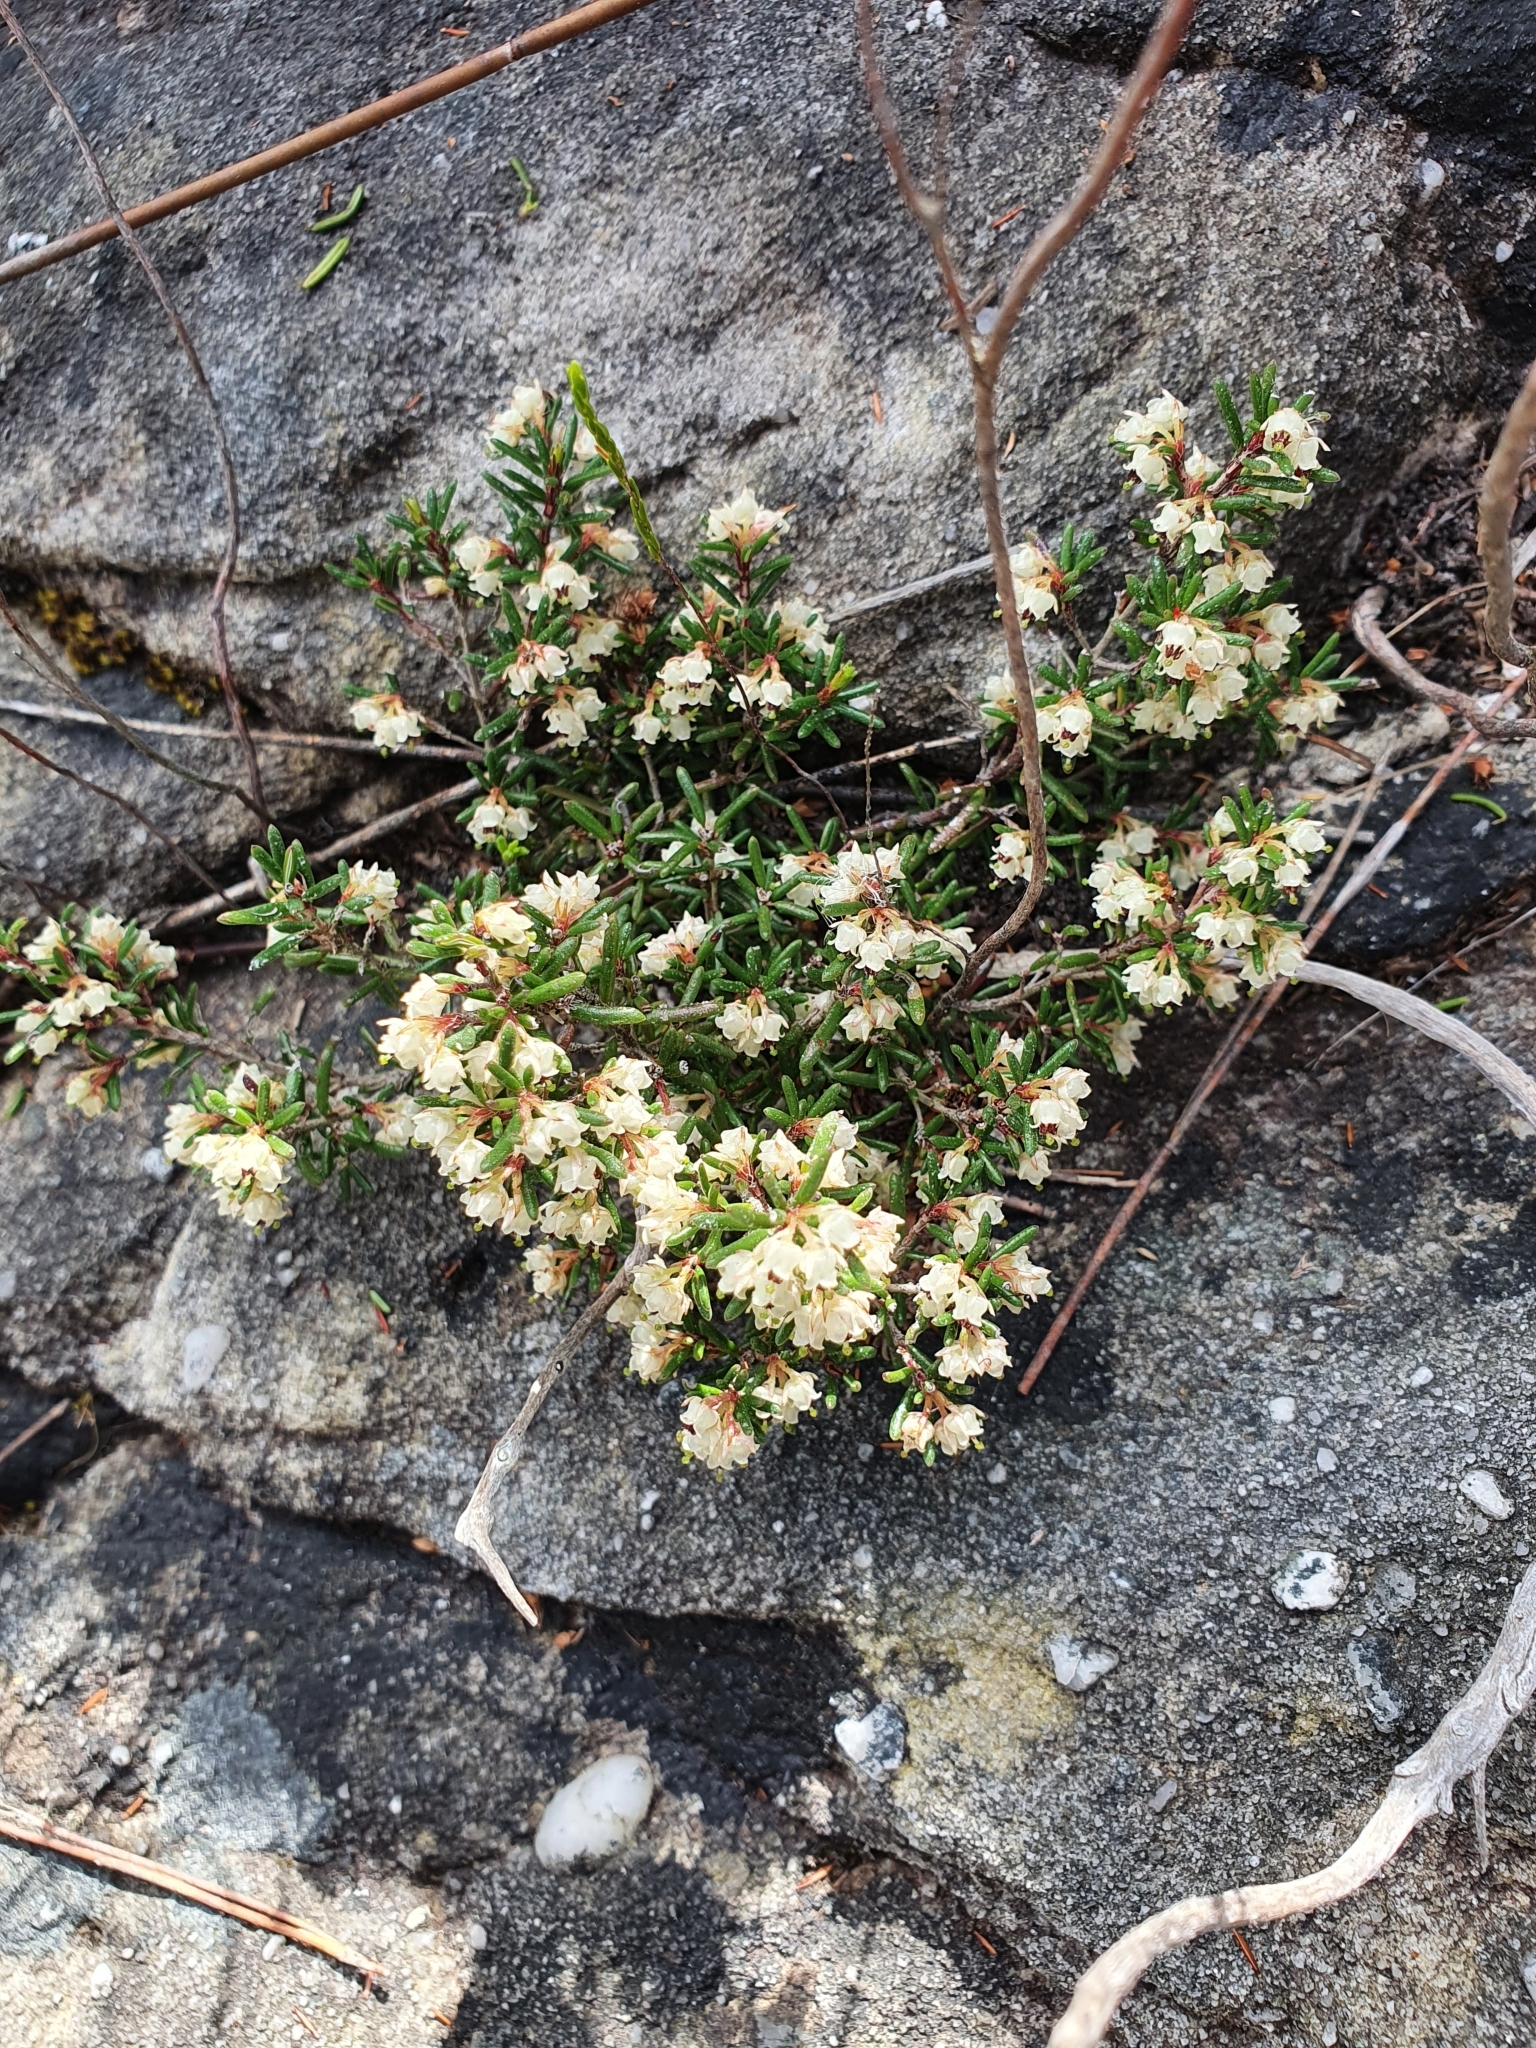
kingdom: Plantae
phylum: Tracheophyta
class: Magnoliopsida
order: Ericales
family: Ericaceae
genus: Erica
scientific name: Erica obtusata
